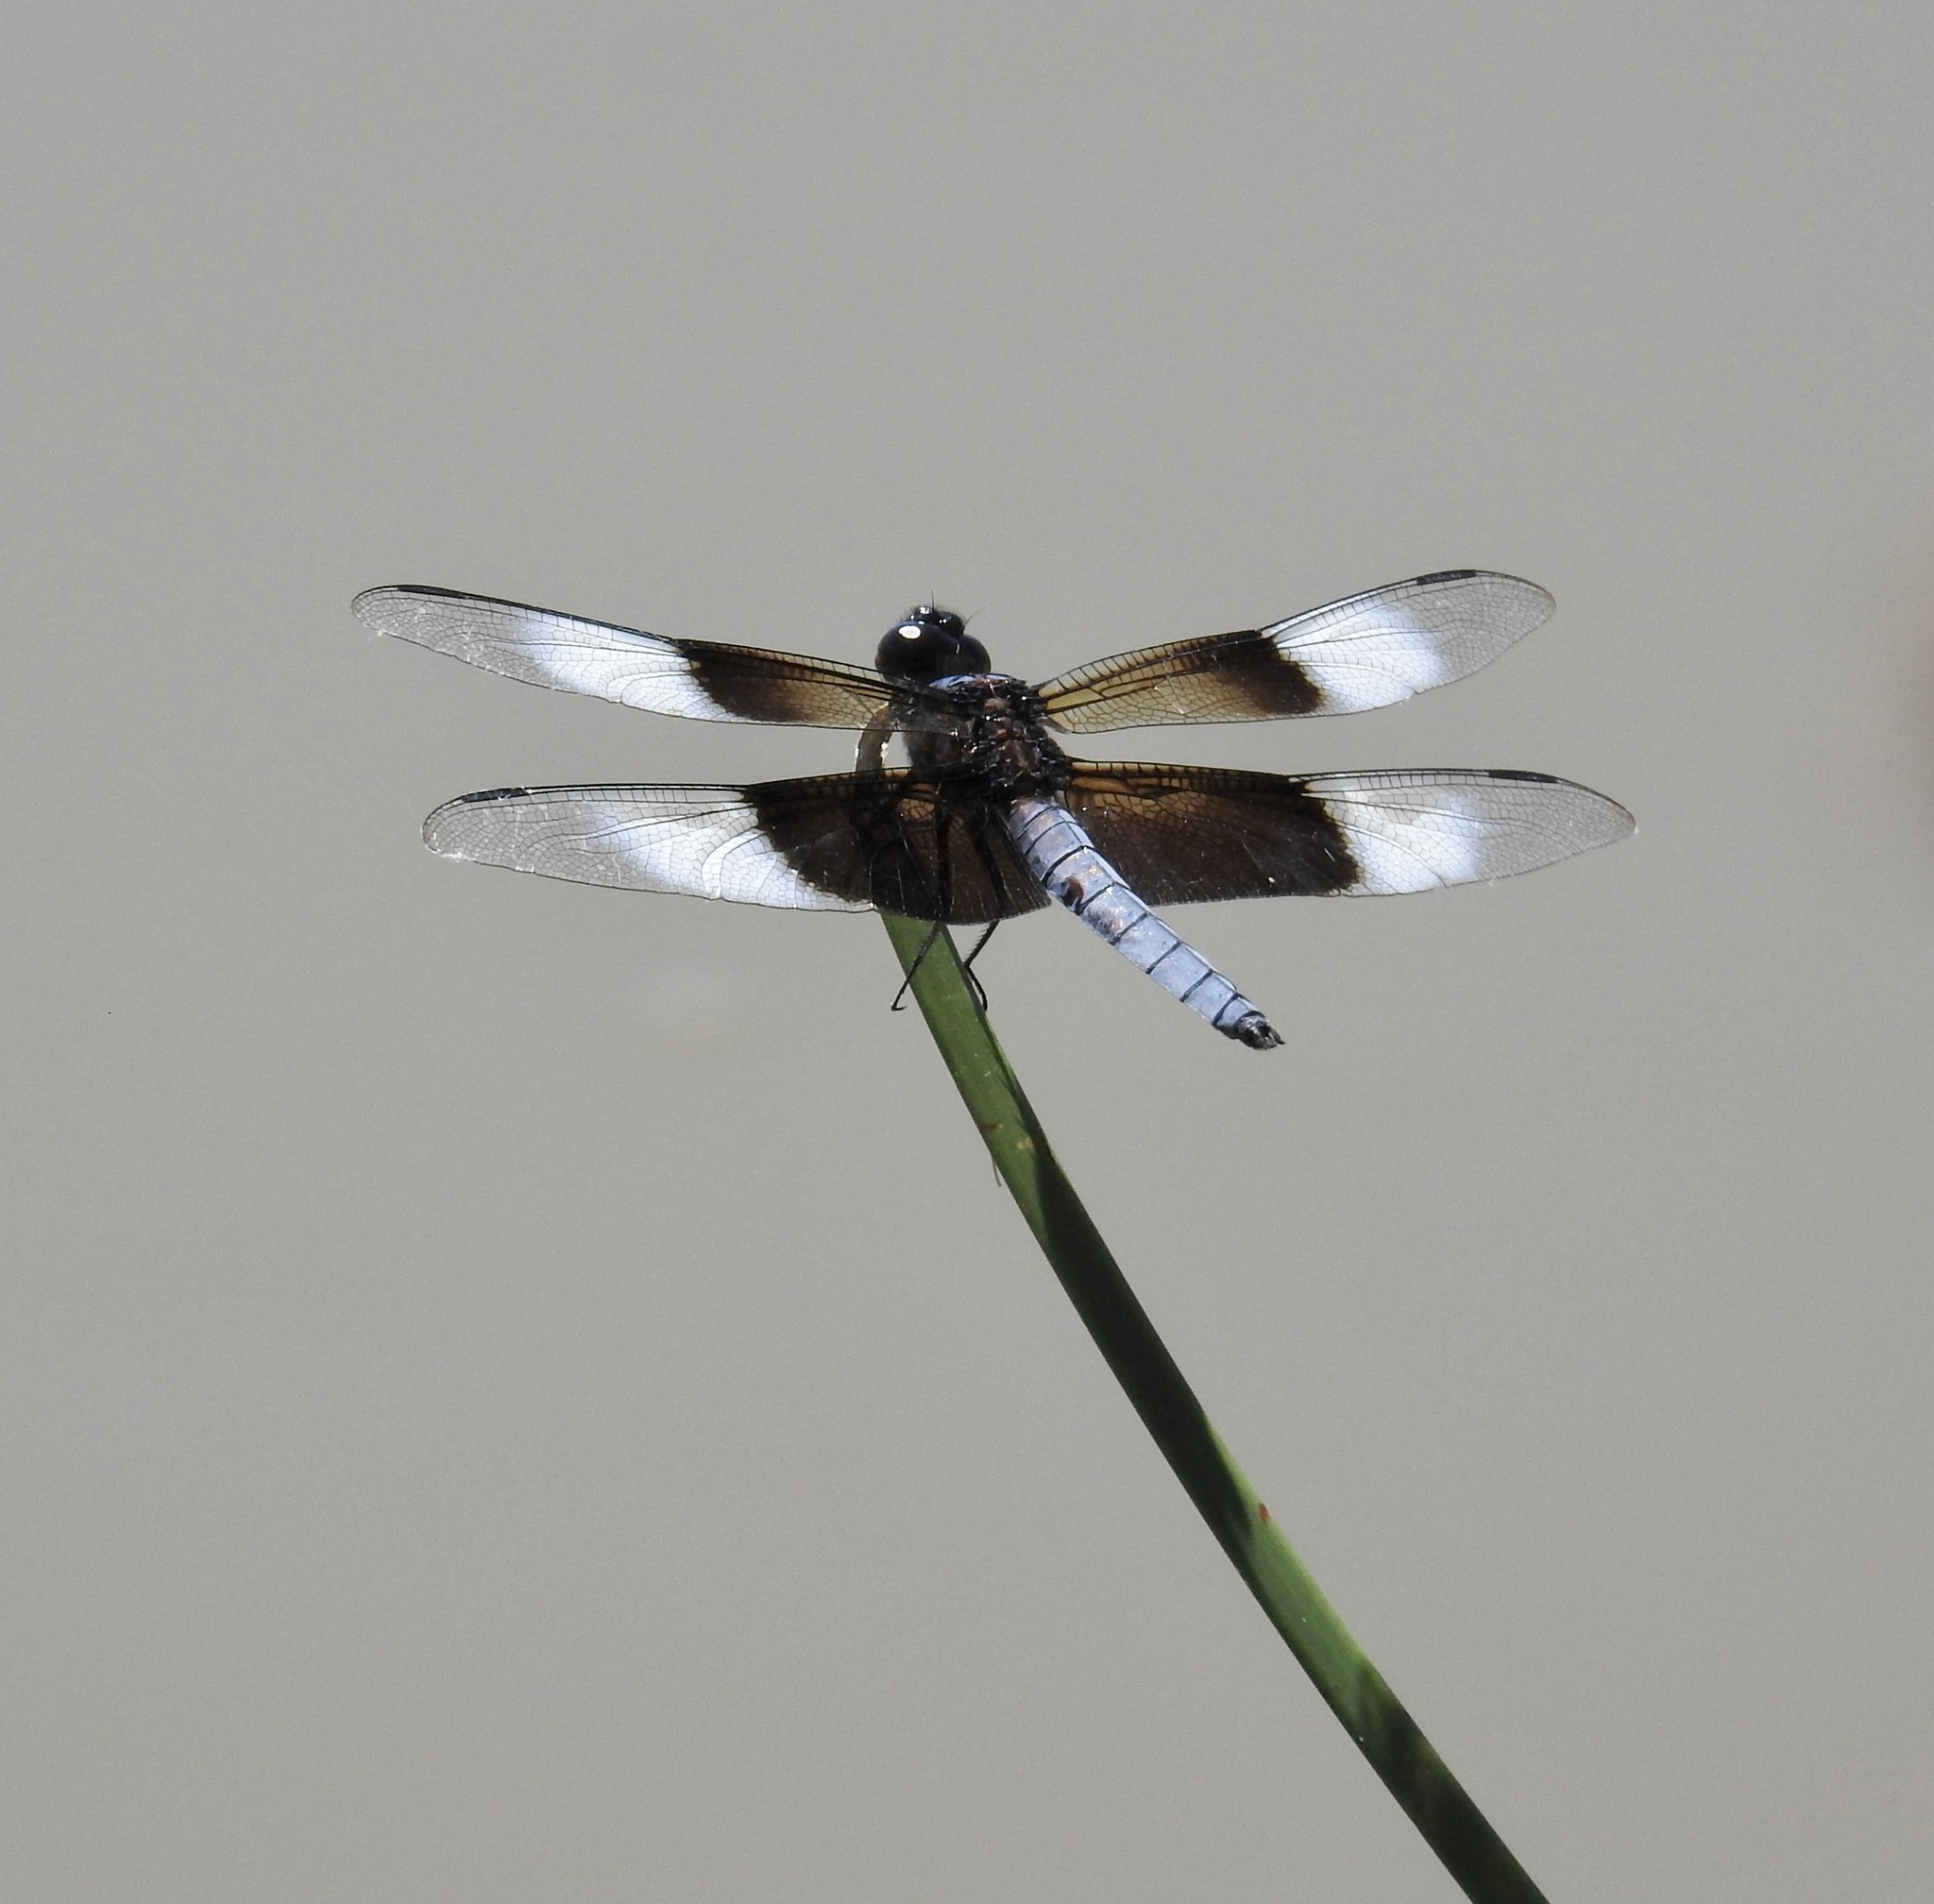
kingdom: Animalia
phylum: Arthropoda
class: Insecta
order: Odonata
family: Libellulidae
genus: Libellula
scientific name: Libellula luctuosa
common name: Widow skimmer
